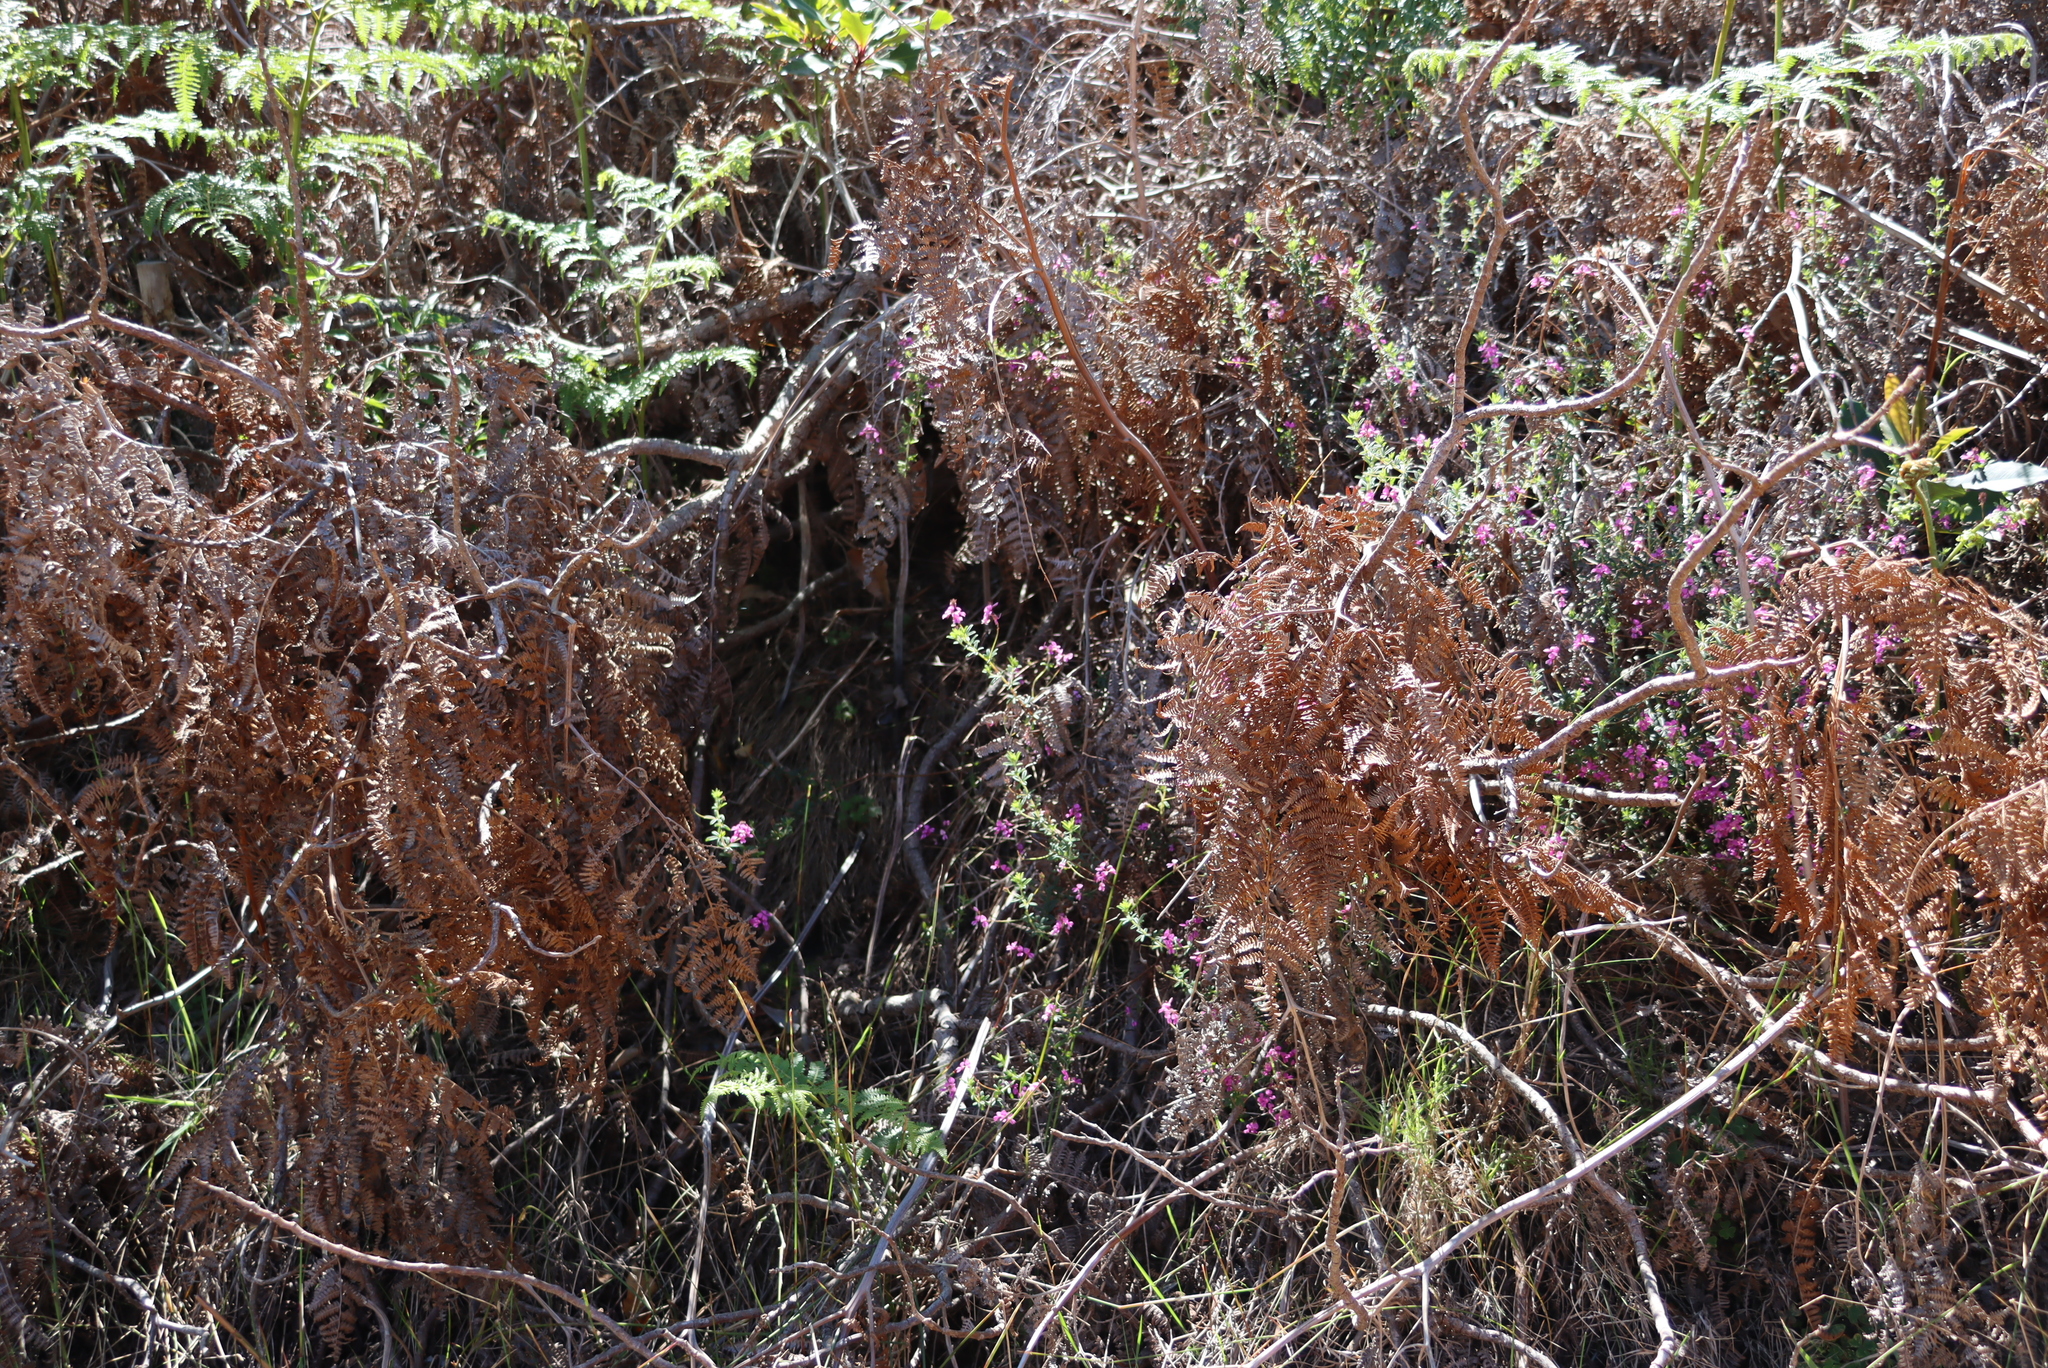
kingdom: Plantae
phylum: Tracheophyta
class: Polypodiopsida
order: Polypodiales
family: Dennstaedtiaceae
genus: Pteridium
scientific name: Pteridium aquilinum
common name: Bracken
